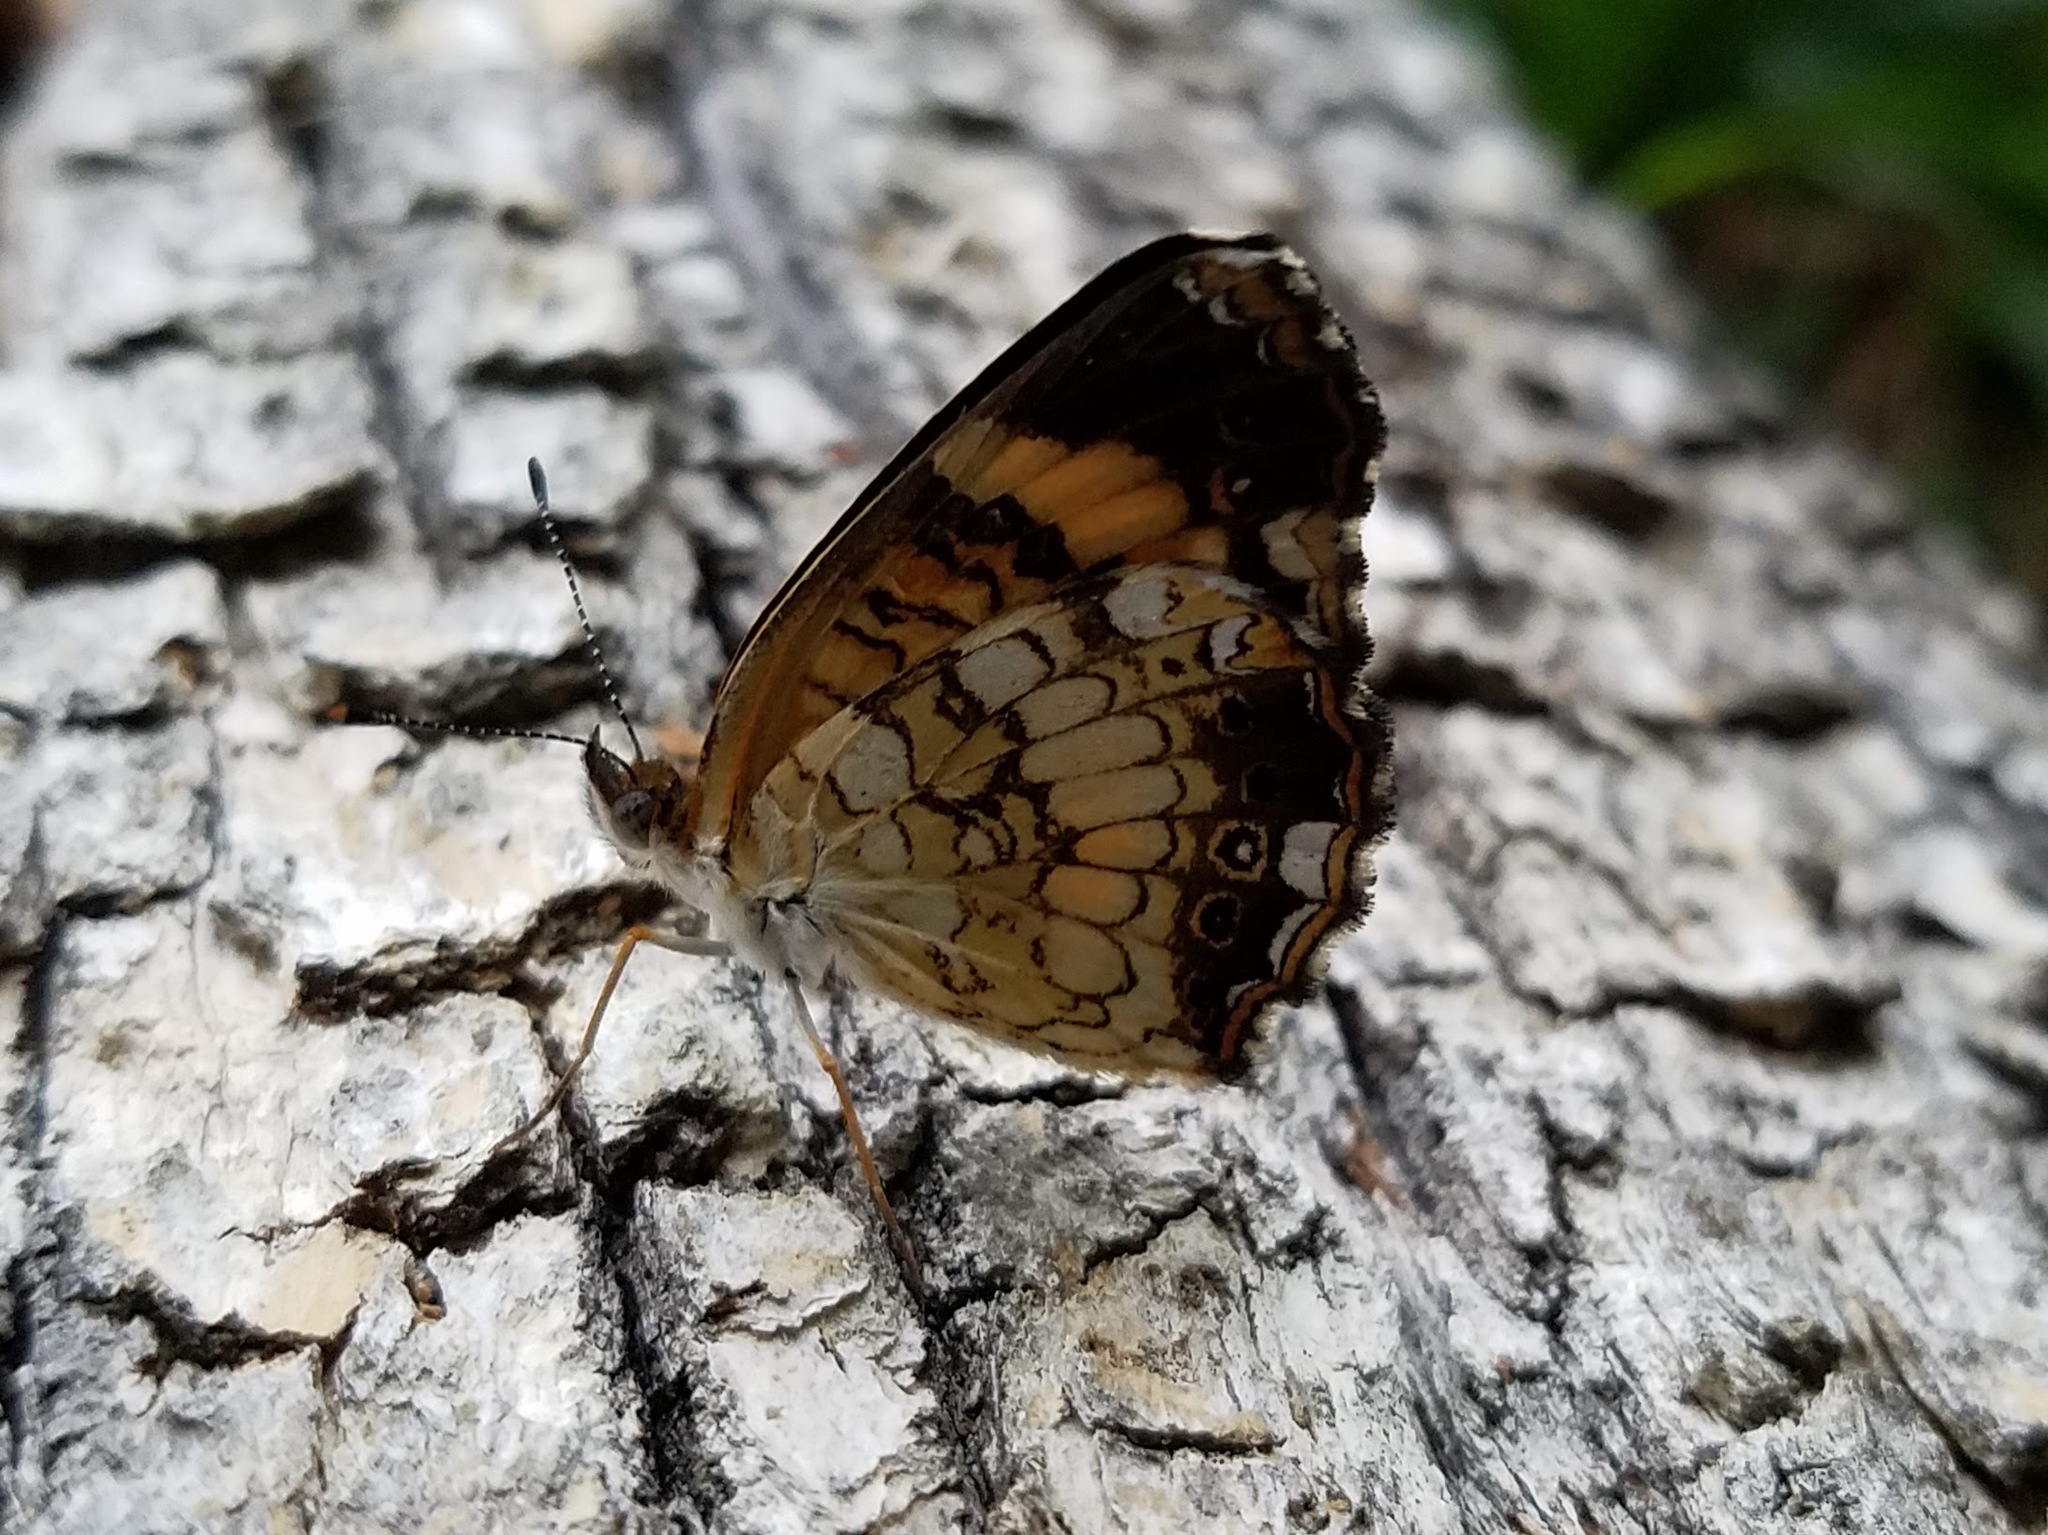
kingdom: Animalia
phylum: Arthropoda
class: Insecta
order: Lepidoptera
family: Nymphalidae
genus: Chlosyne
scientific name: Chlosyne nycteis
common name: Silvery checkerspot
